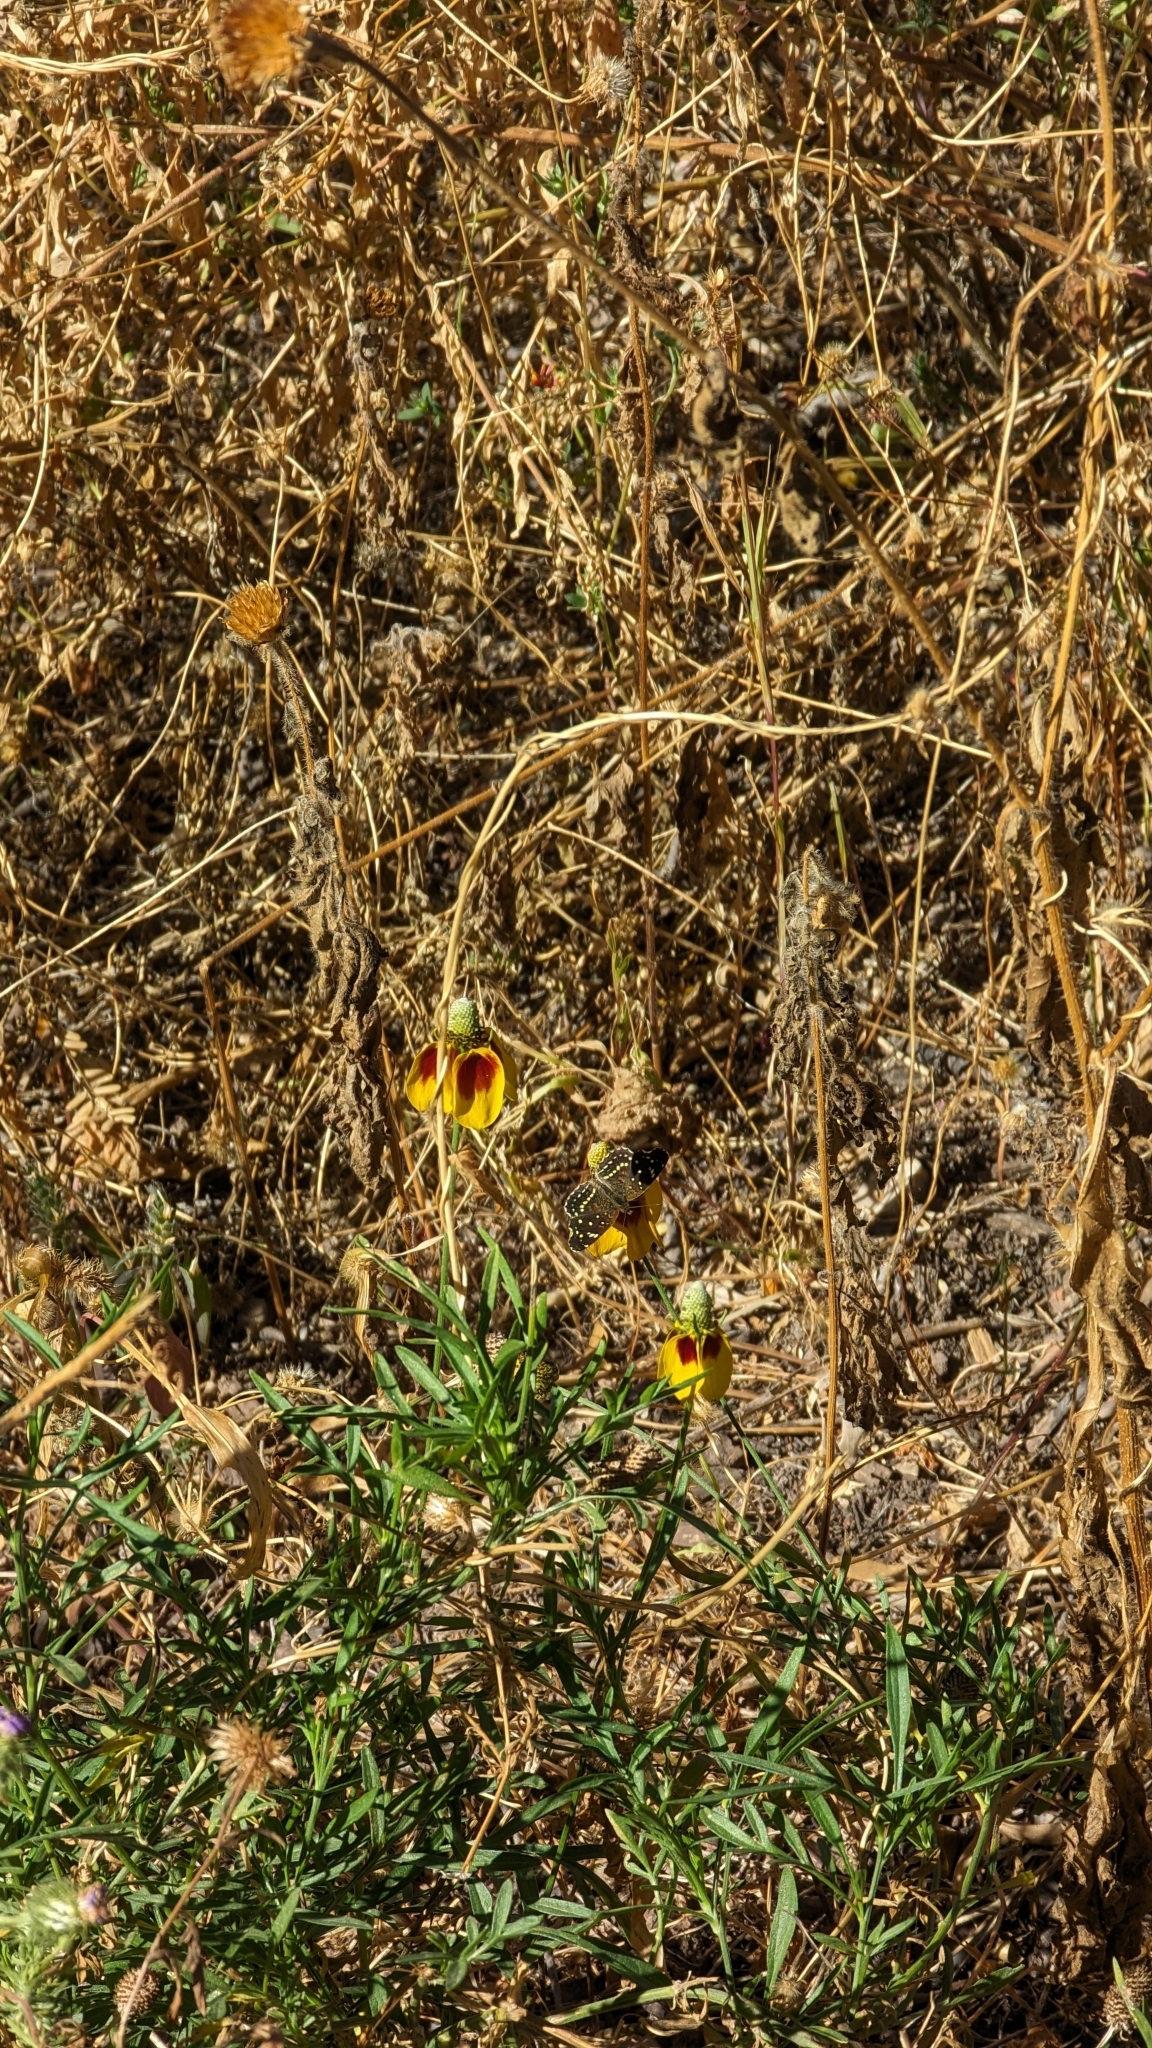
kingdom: Animalia
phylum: Arthropoda
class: Insecta
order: Lepidoptera
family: Nymphalidae
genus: Anthanassa
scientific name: Anthanassa texana
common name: Texan crescent
